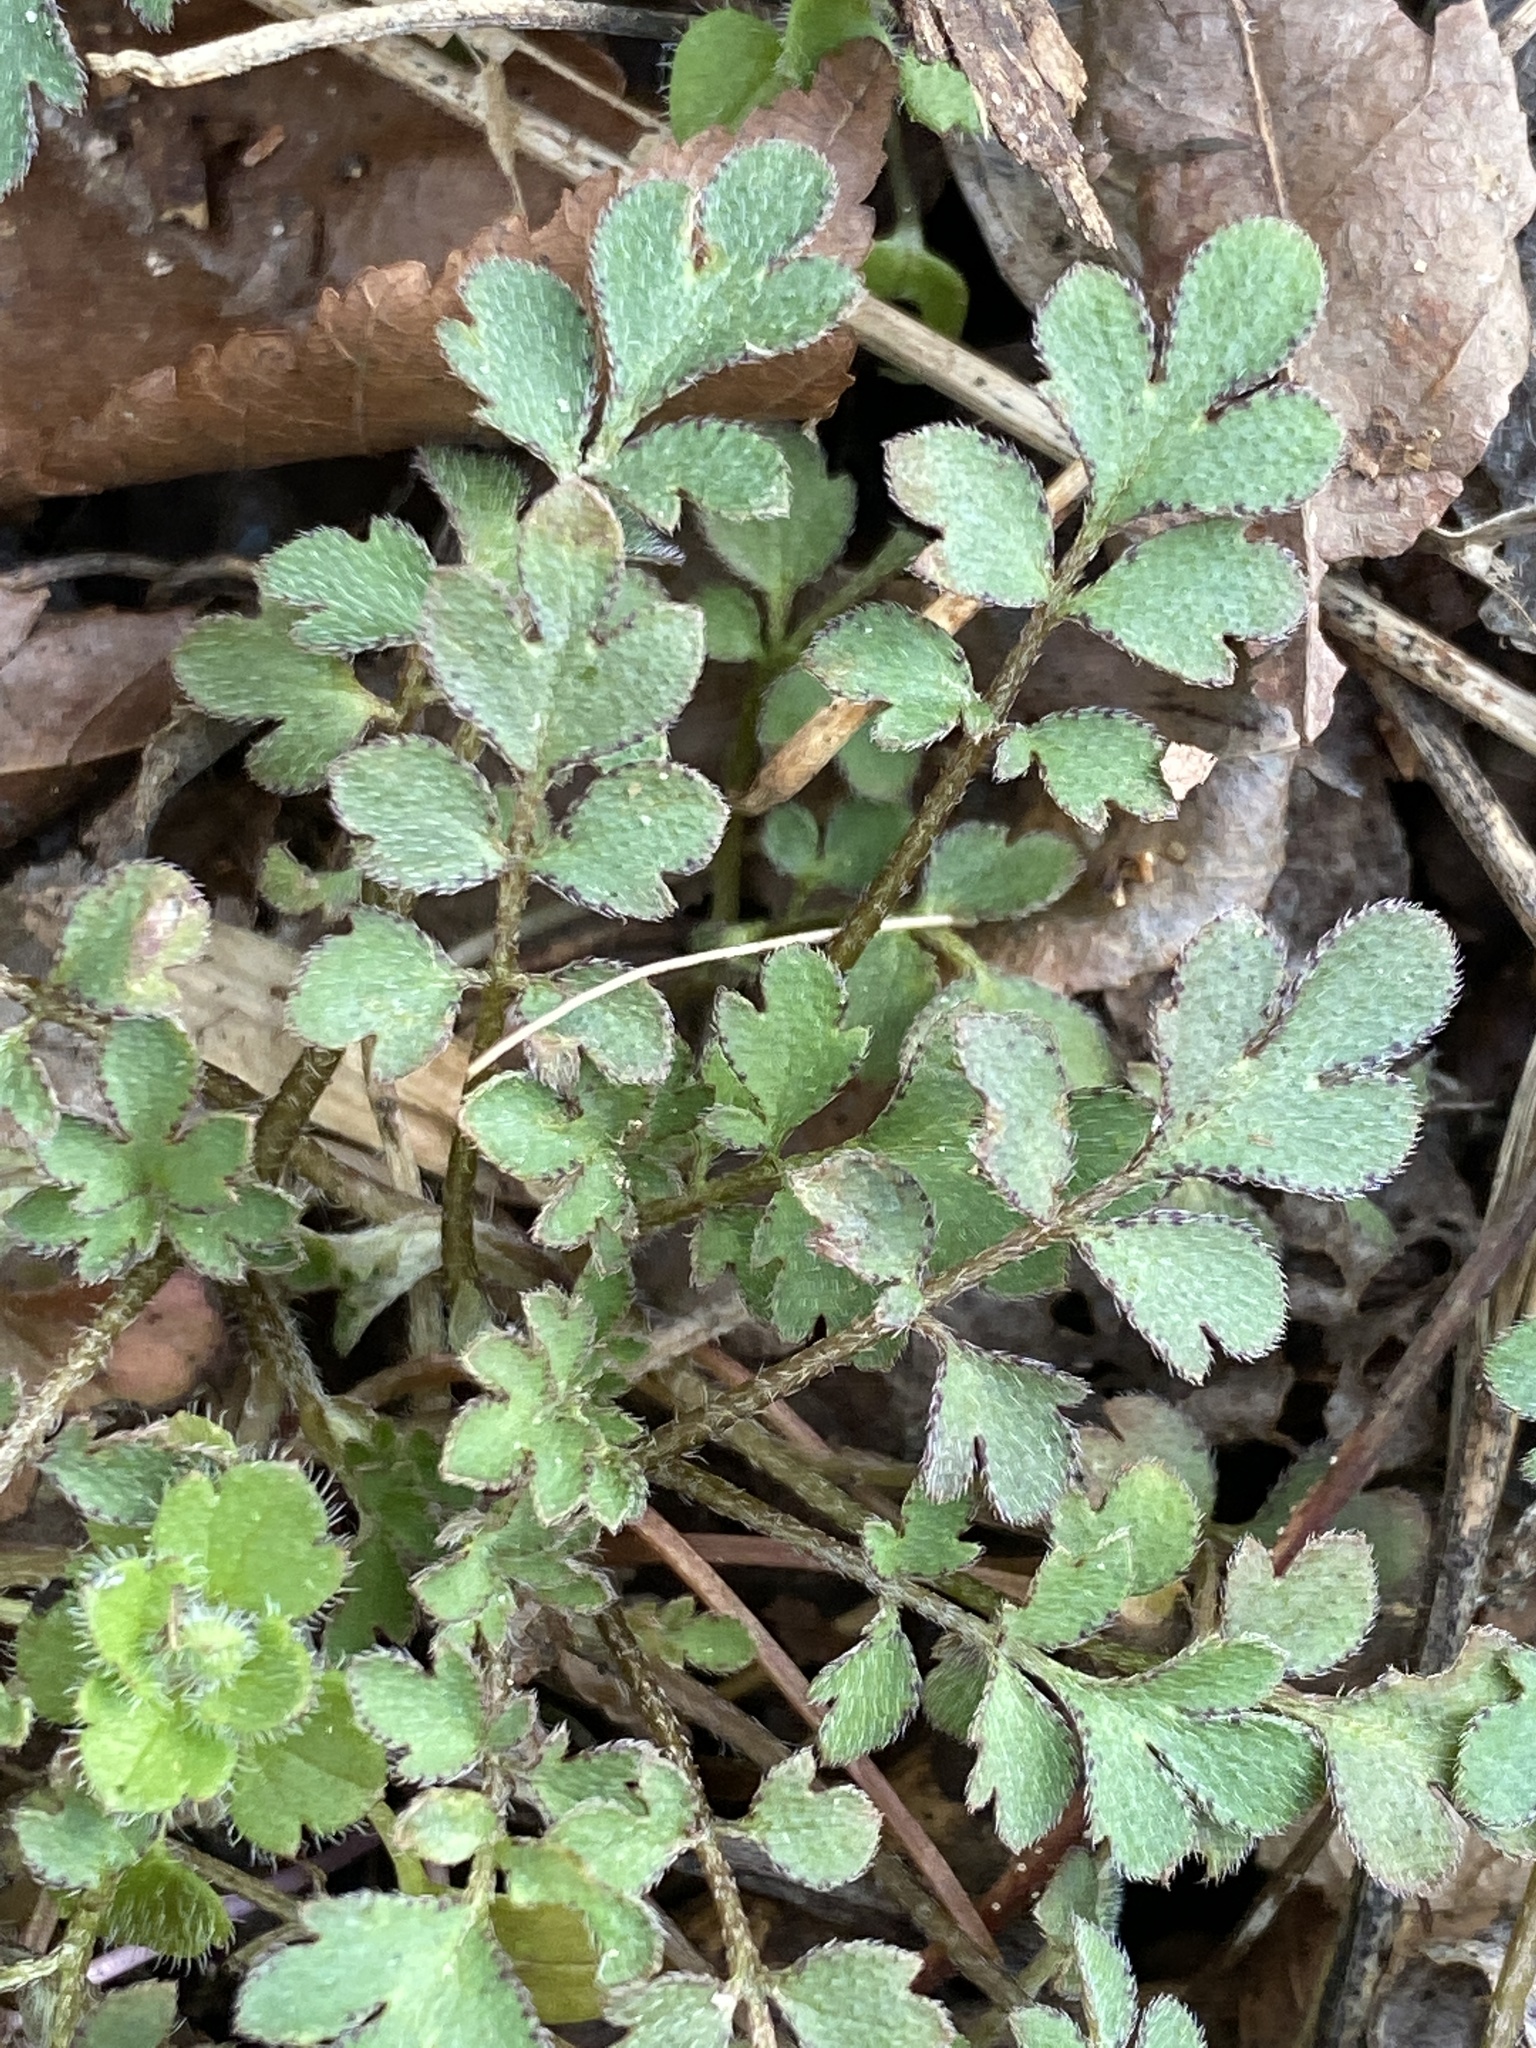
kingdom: Plantae
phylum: Tracheophyta
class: Magnoliopsida
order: Boraginales
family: Hydrophyllaceae
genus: Phacelia
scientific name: Phacelia covillei
